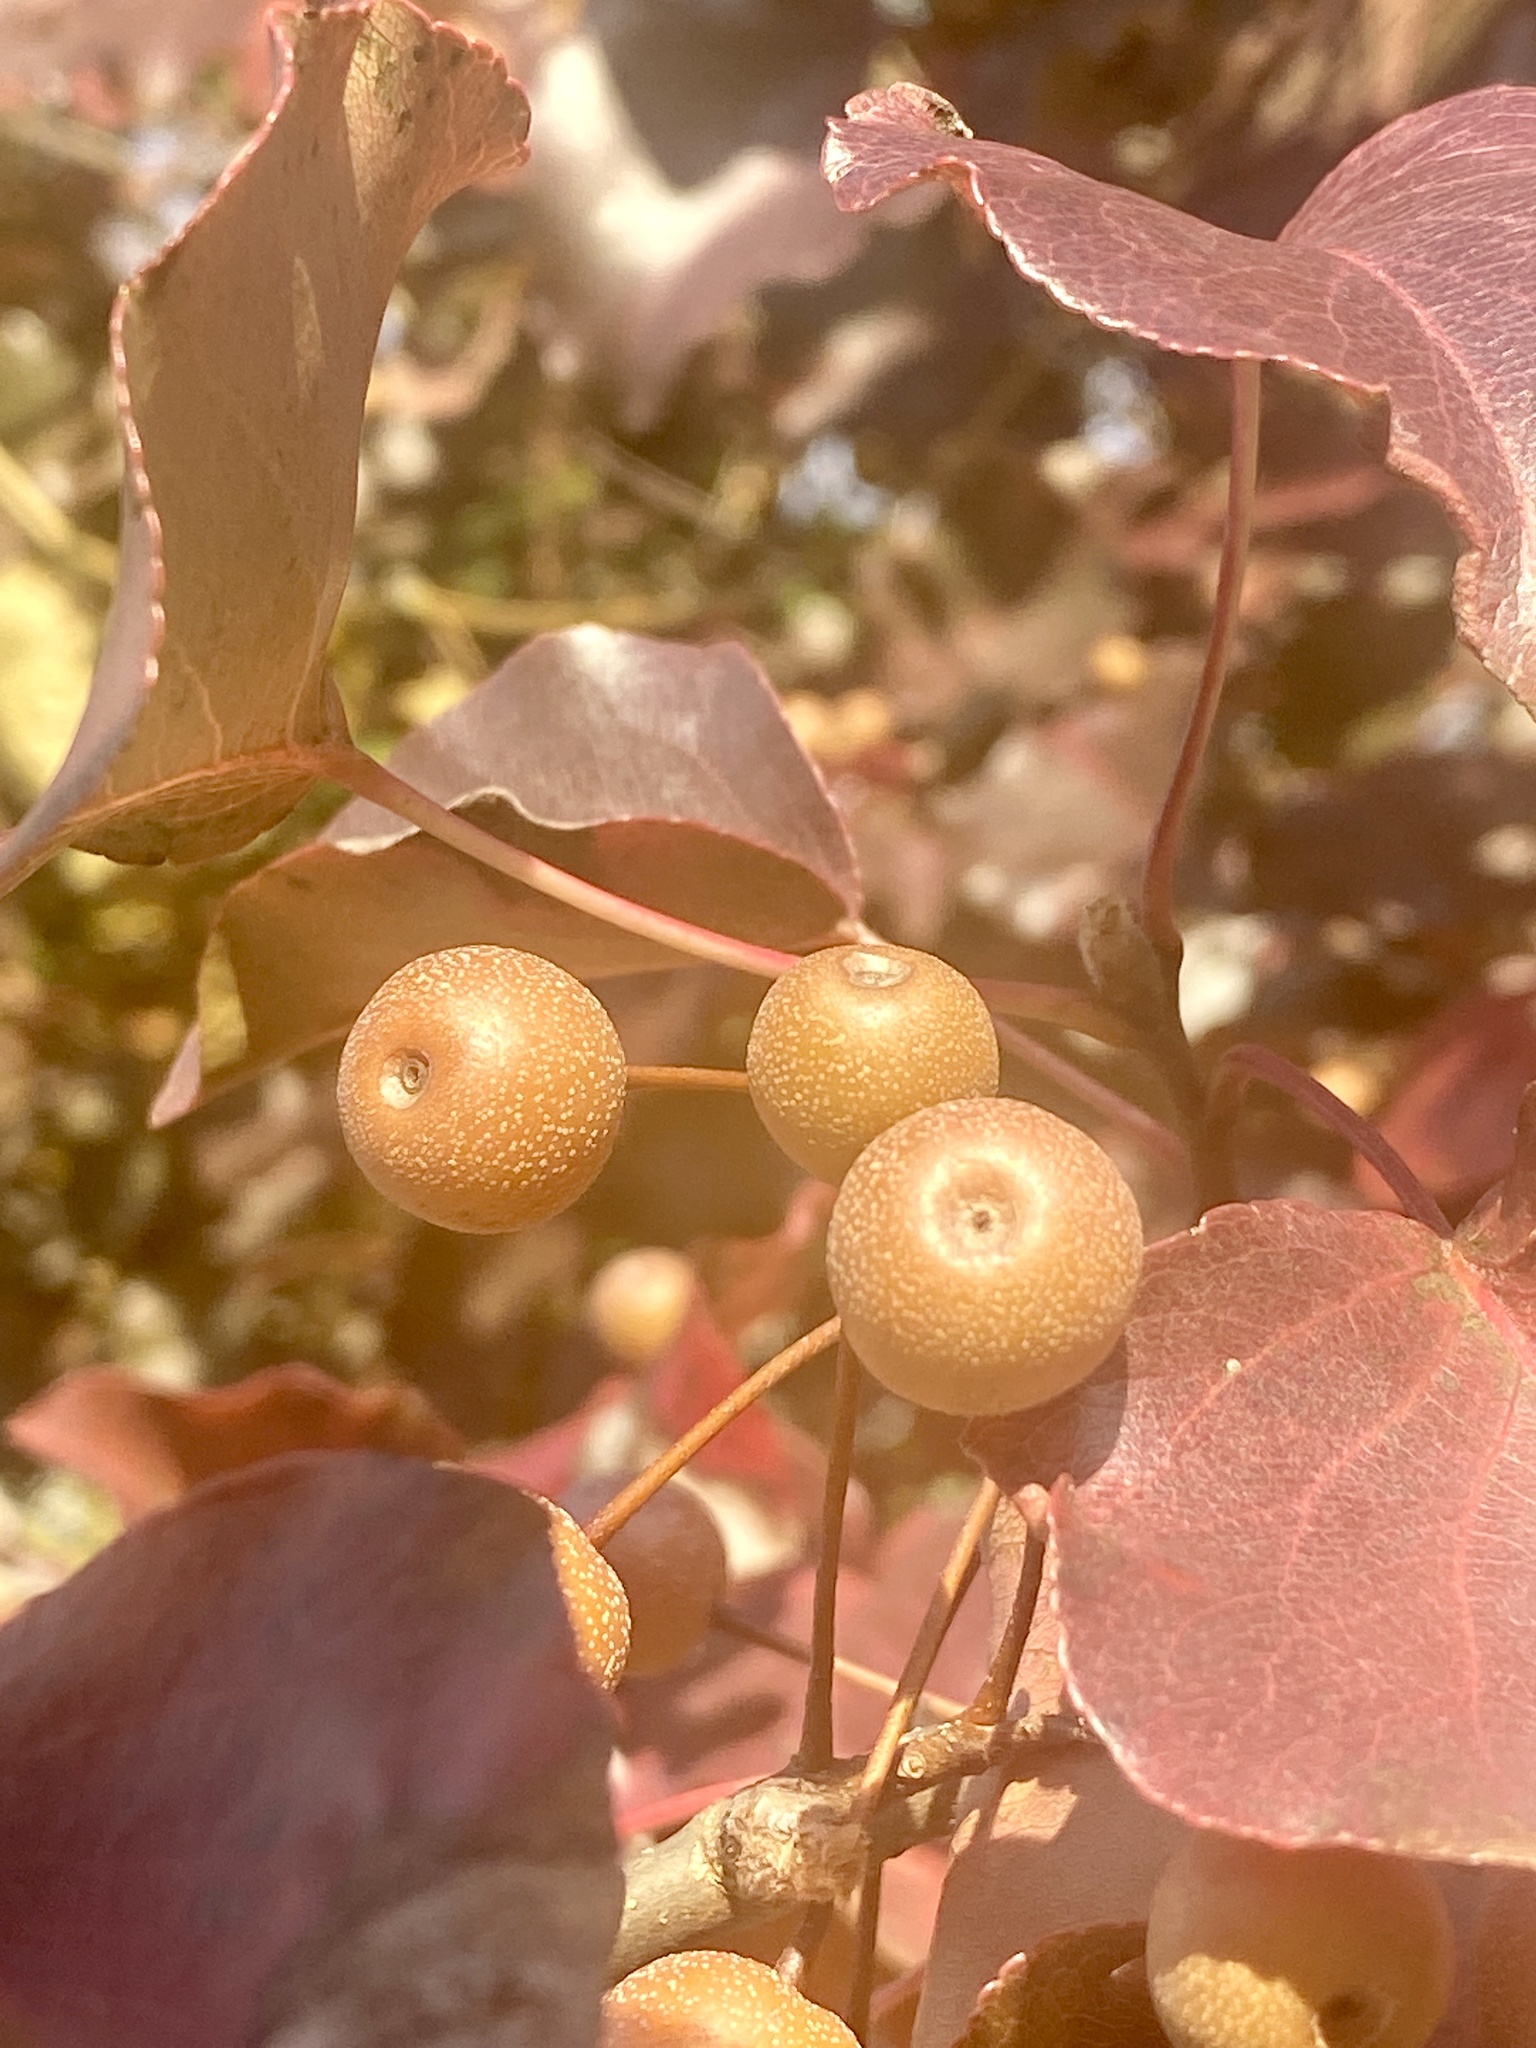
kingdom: Plantae
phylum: Tracheophyta
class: Magnoliopsida
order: Rosales
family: Rosaceae
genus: Pyrus
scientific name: Pyrus calleryana
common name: Callery pear
